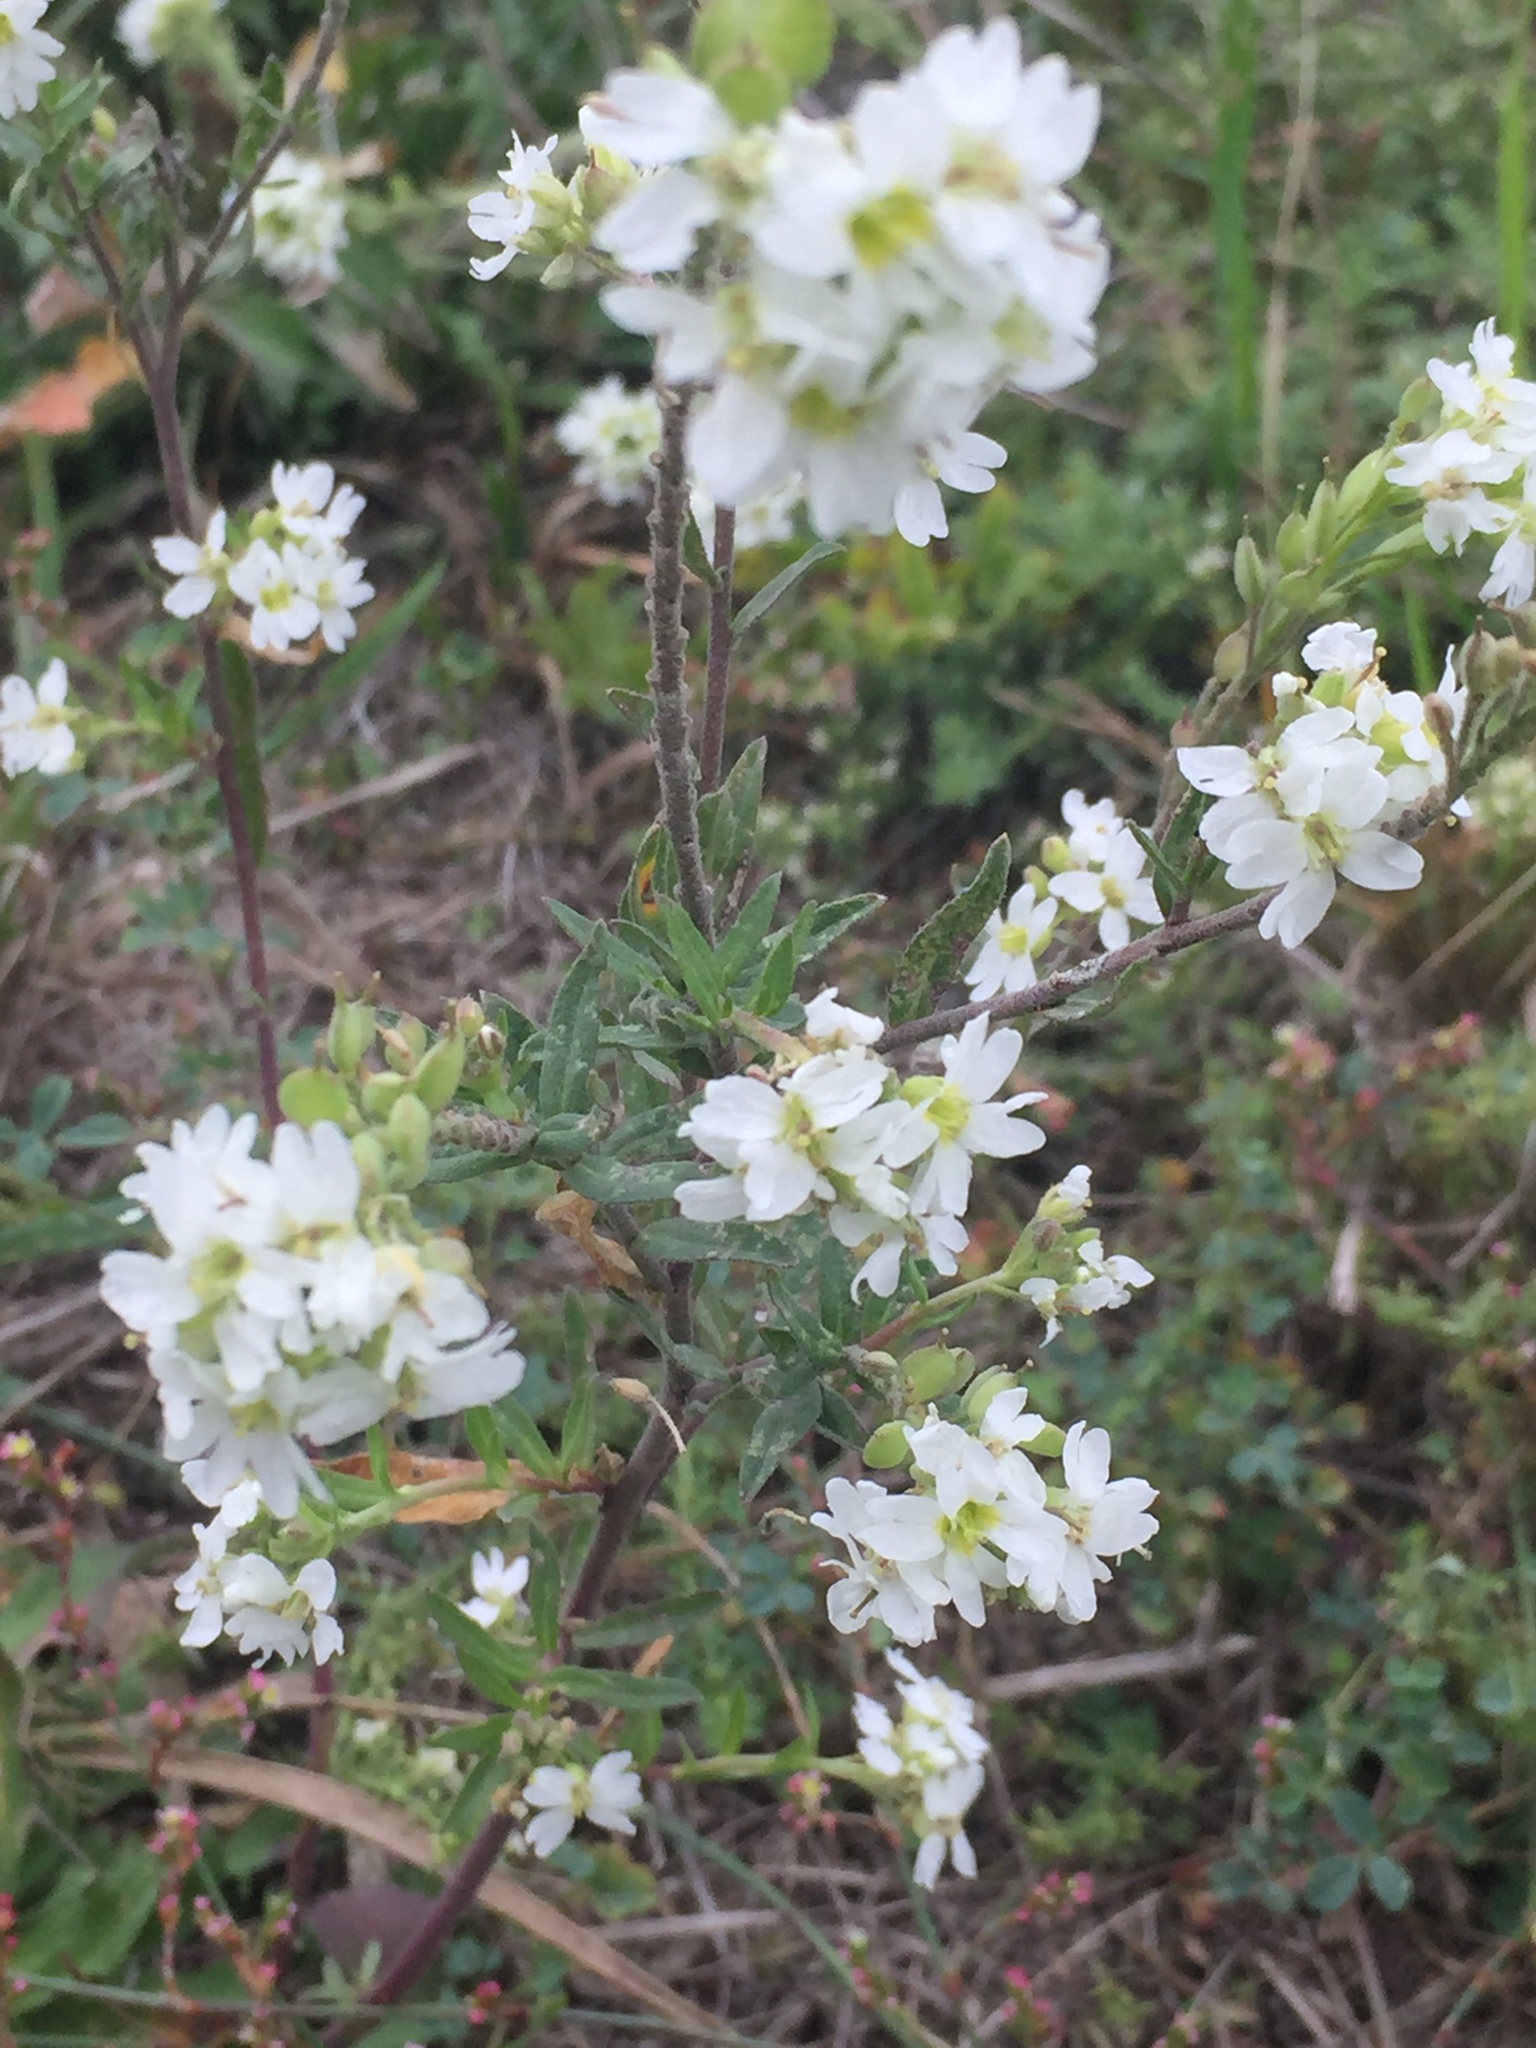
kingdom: Plantae
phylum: Tracheophyta
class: Magnoliopsida
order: Brassicales
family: Brassicaceae
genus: Berteroa
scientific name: Berteroa incana
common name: Hoary alison
